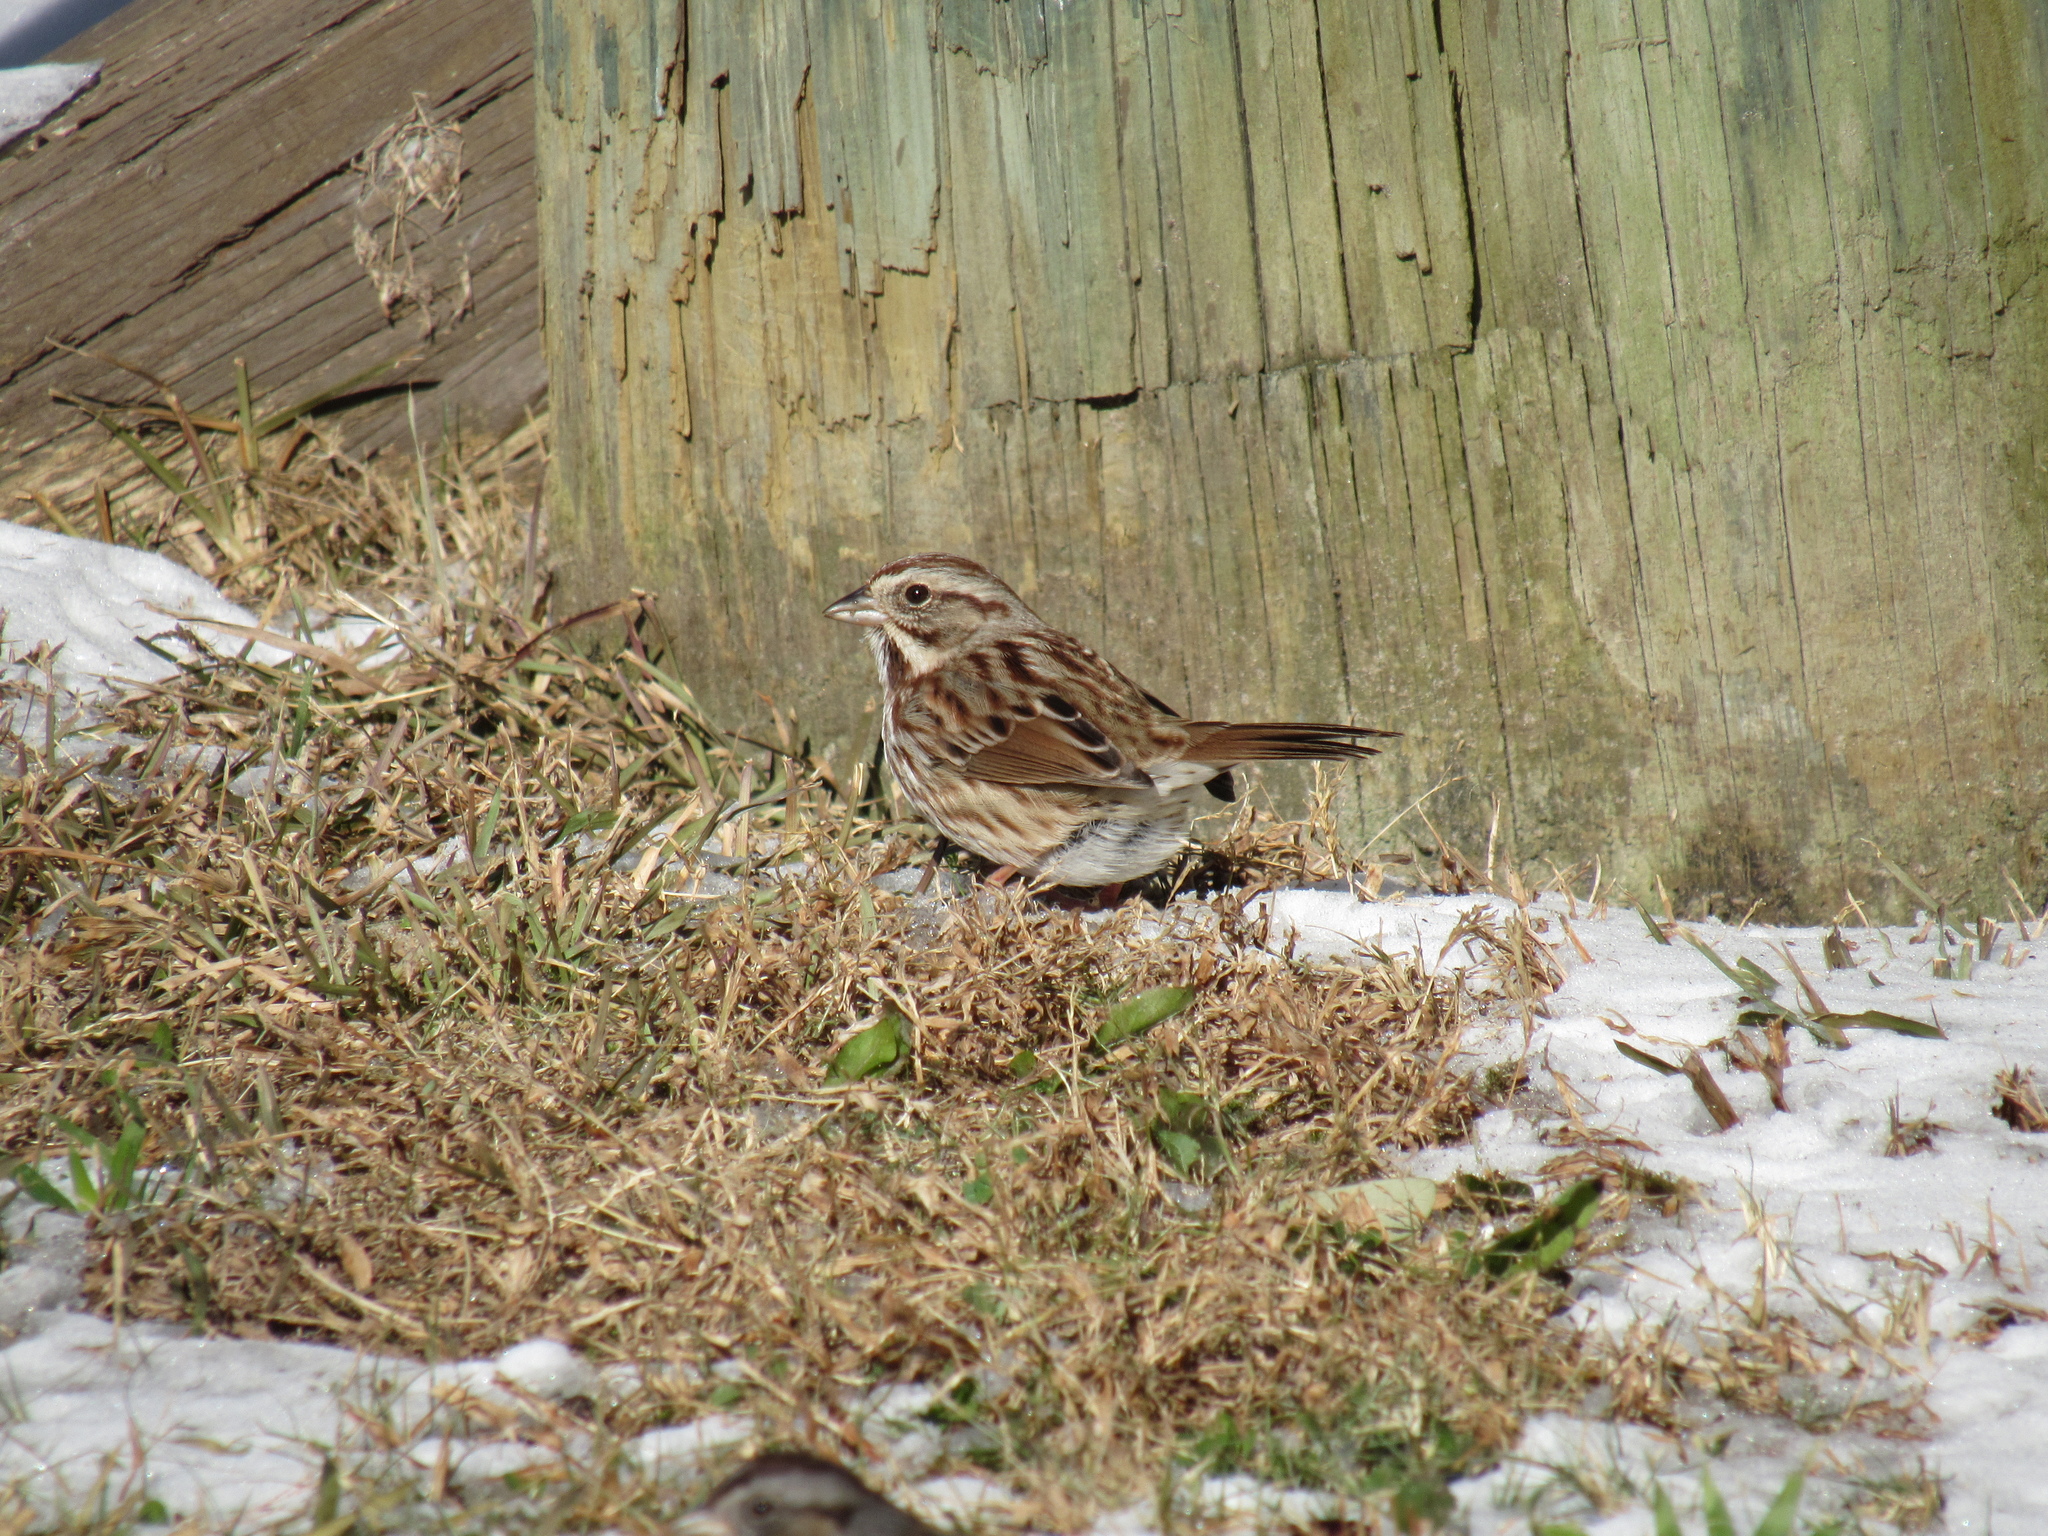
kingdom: Animalia
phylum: Chordata
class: Aves
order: Passeriformes
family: Passerellidae
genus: Melospiza
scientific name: Melospiza melodia
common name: Song sparrow
